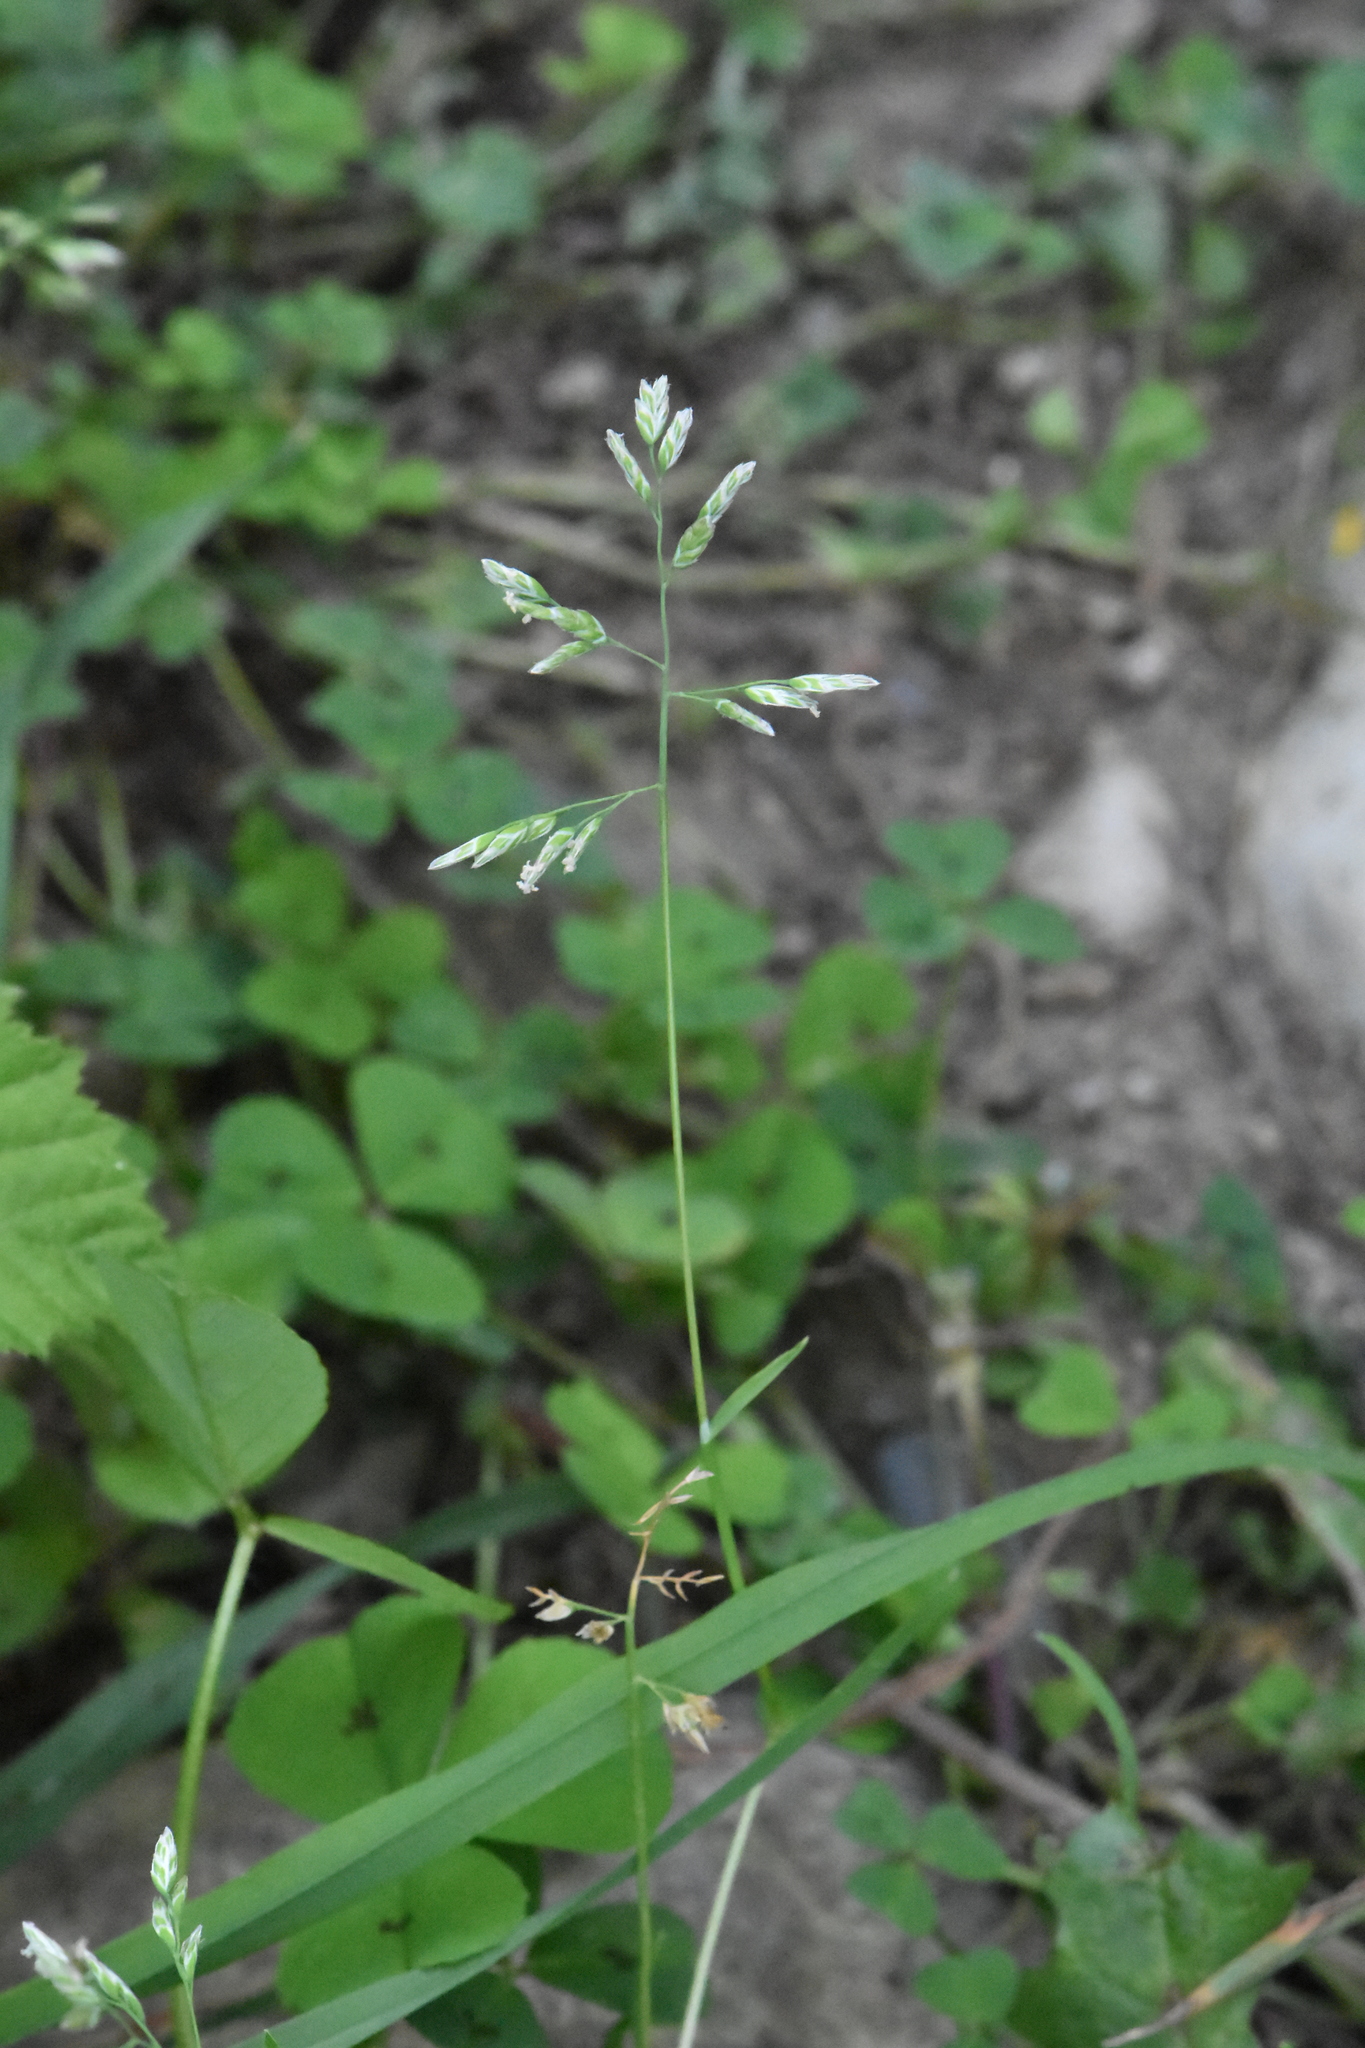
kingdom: Plantae
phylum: Tracheophyta
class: Liliopsida
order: Poales
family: Poaceae
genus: Poa
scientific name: Poa annua
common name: Annual bluegrass
